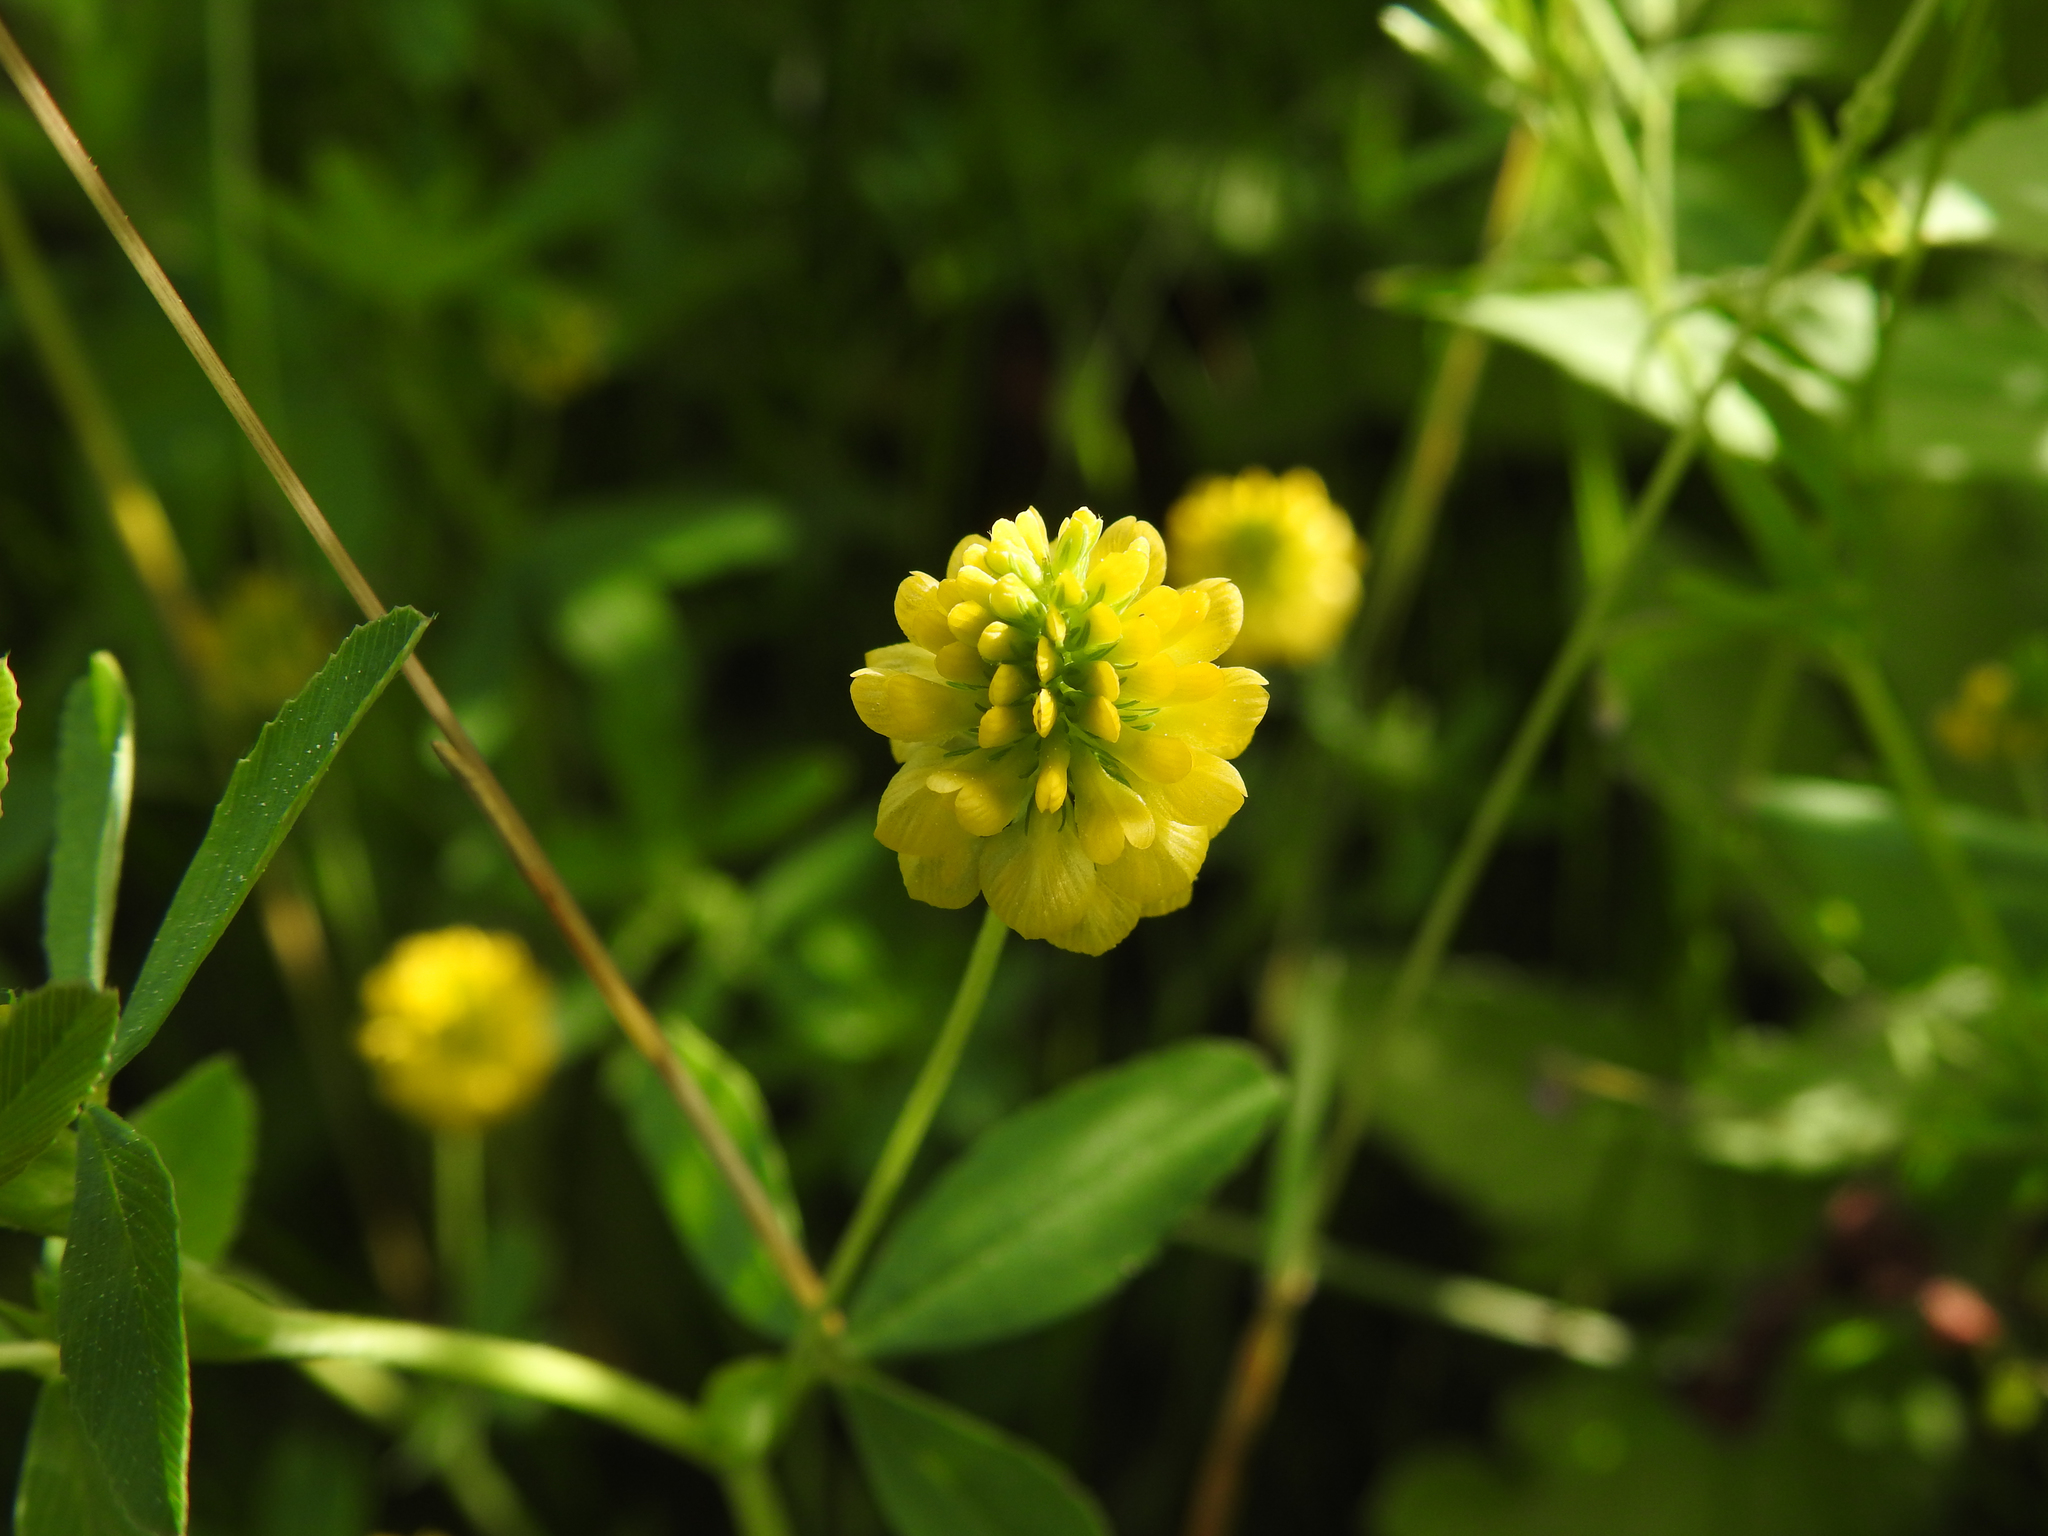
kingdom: Plantae
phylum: Tracheophyta
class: Magnoliopsida
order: Fabales
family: Fabaceae
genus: Trifolium
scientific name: Trifolium aureum
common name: Golden clover
